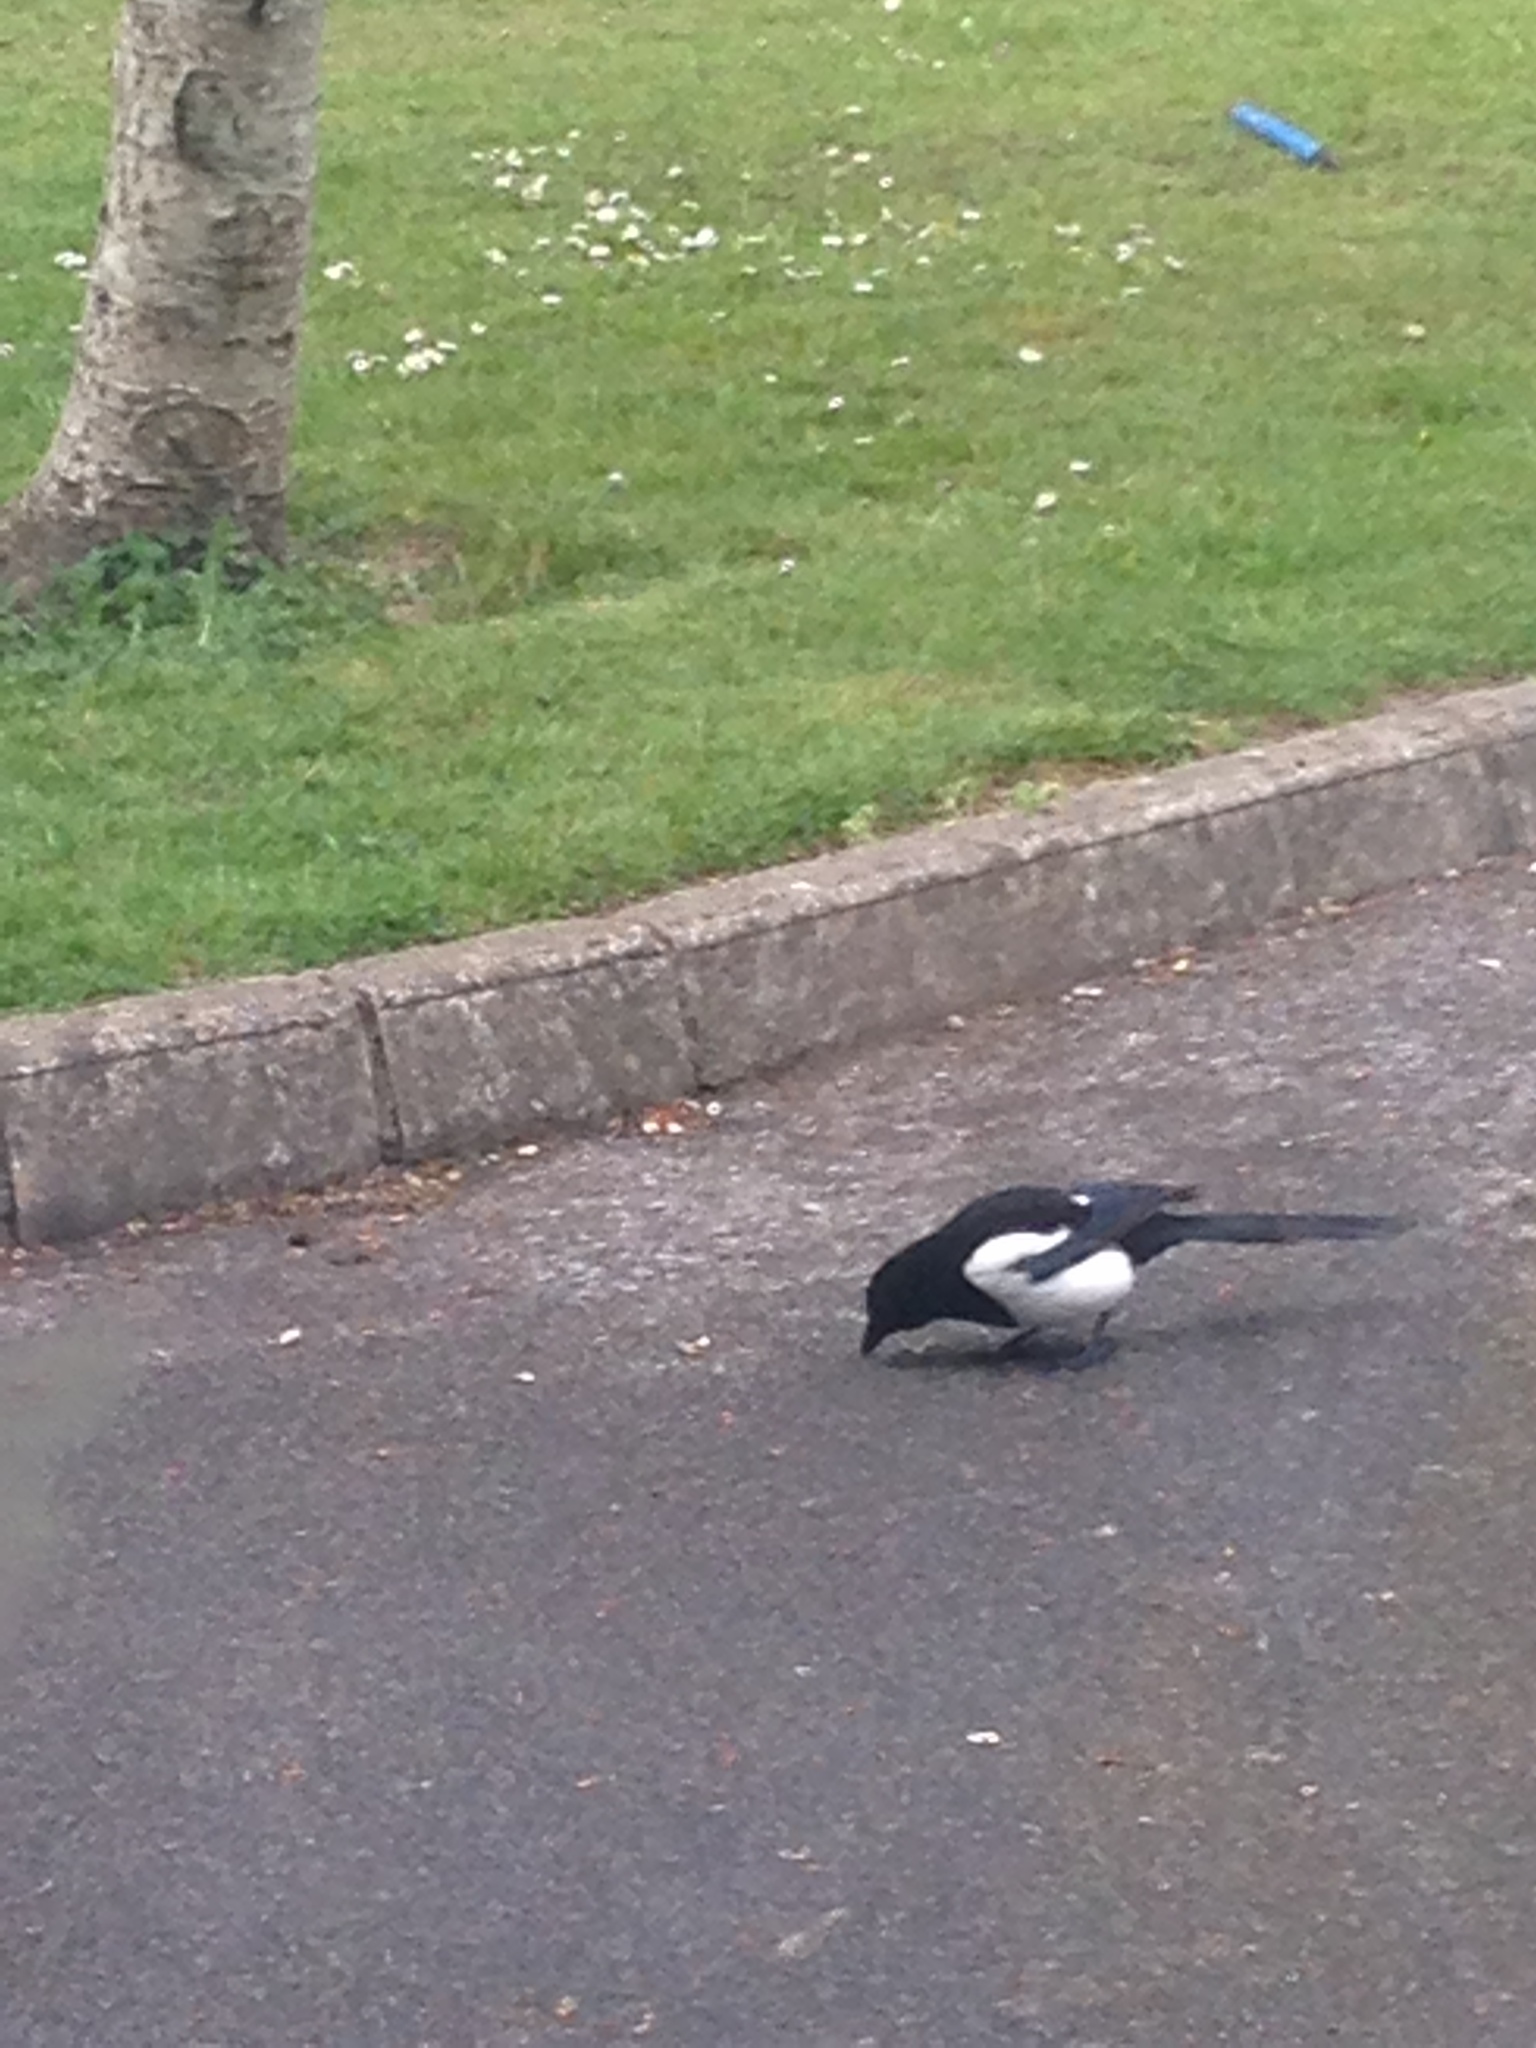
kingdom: Animalia
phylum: Chordata
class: Aves
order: Passeriformes
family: Corvidae
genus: Pica
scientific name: Pica pica
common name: Eurasian magpie
